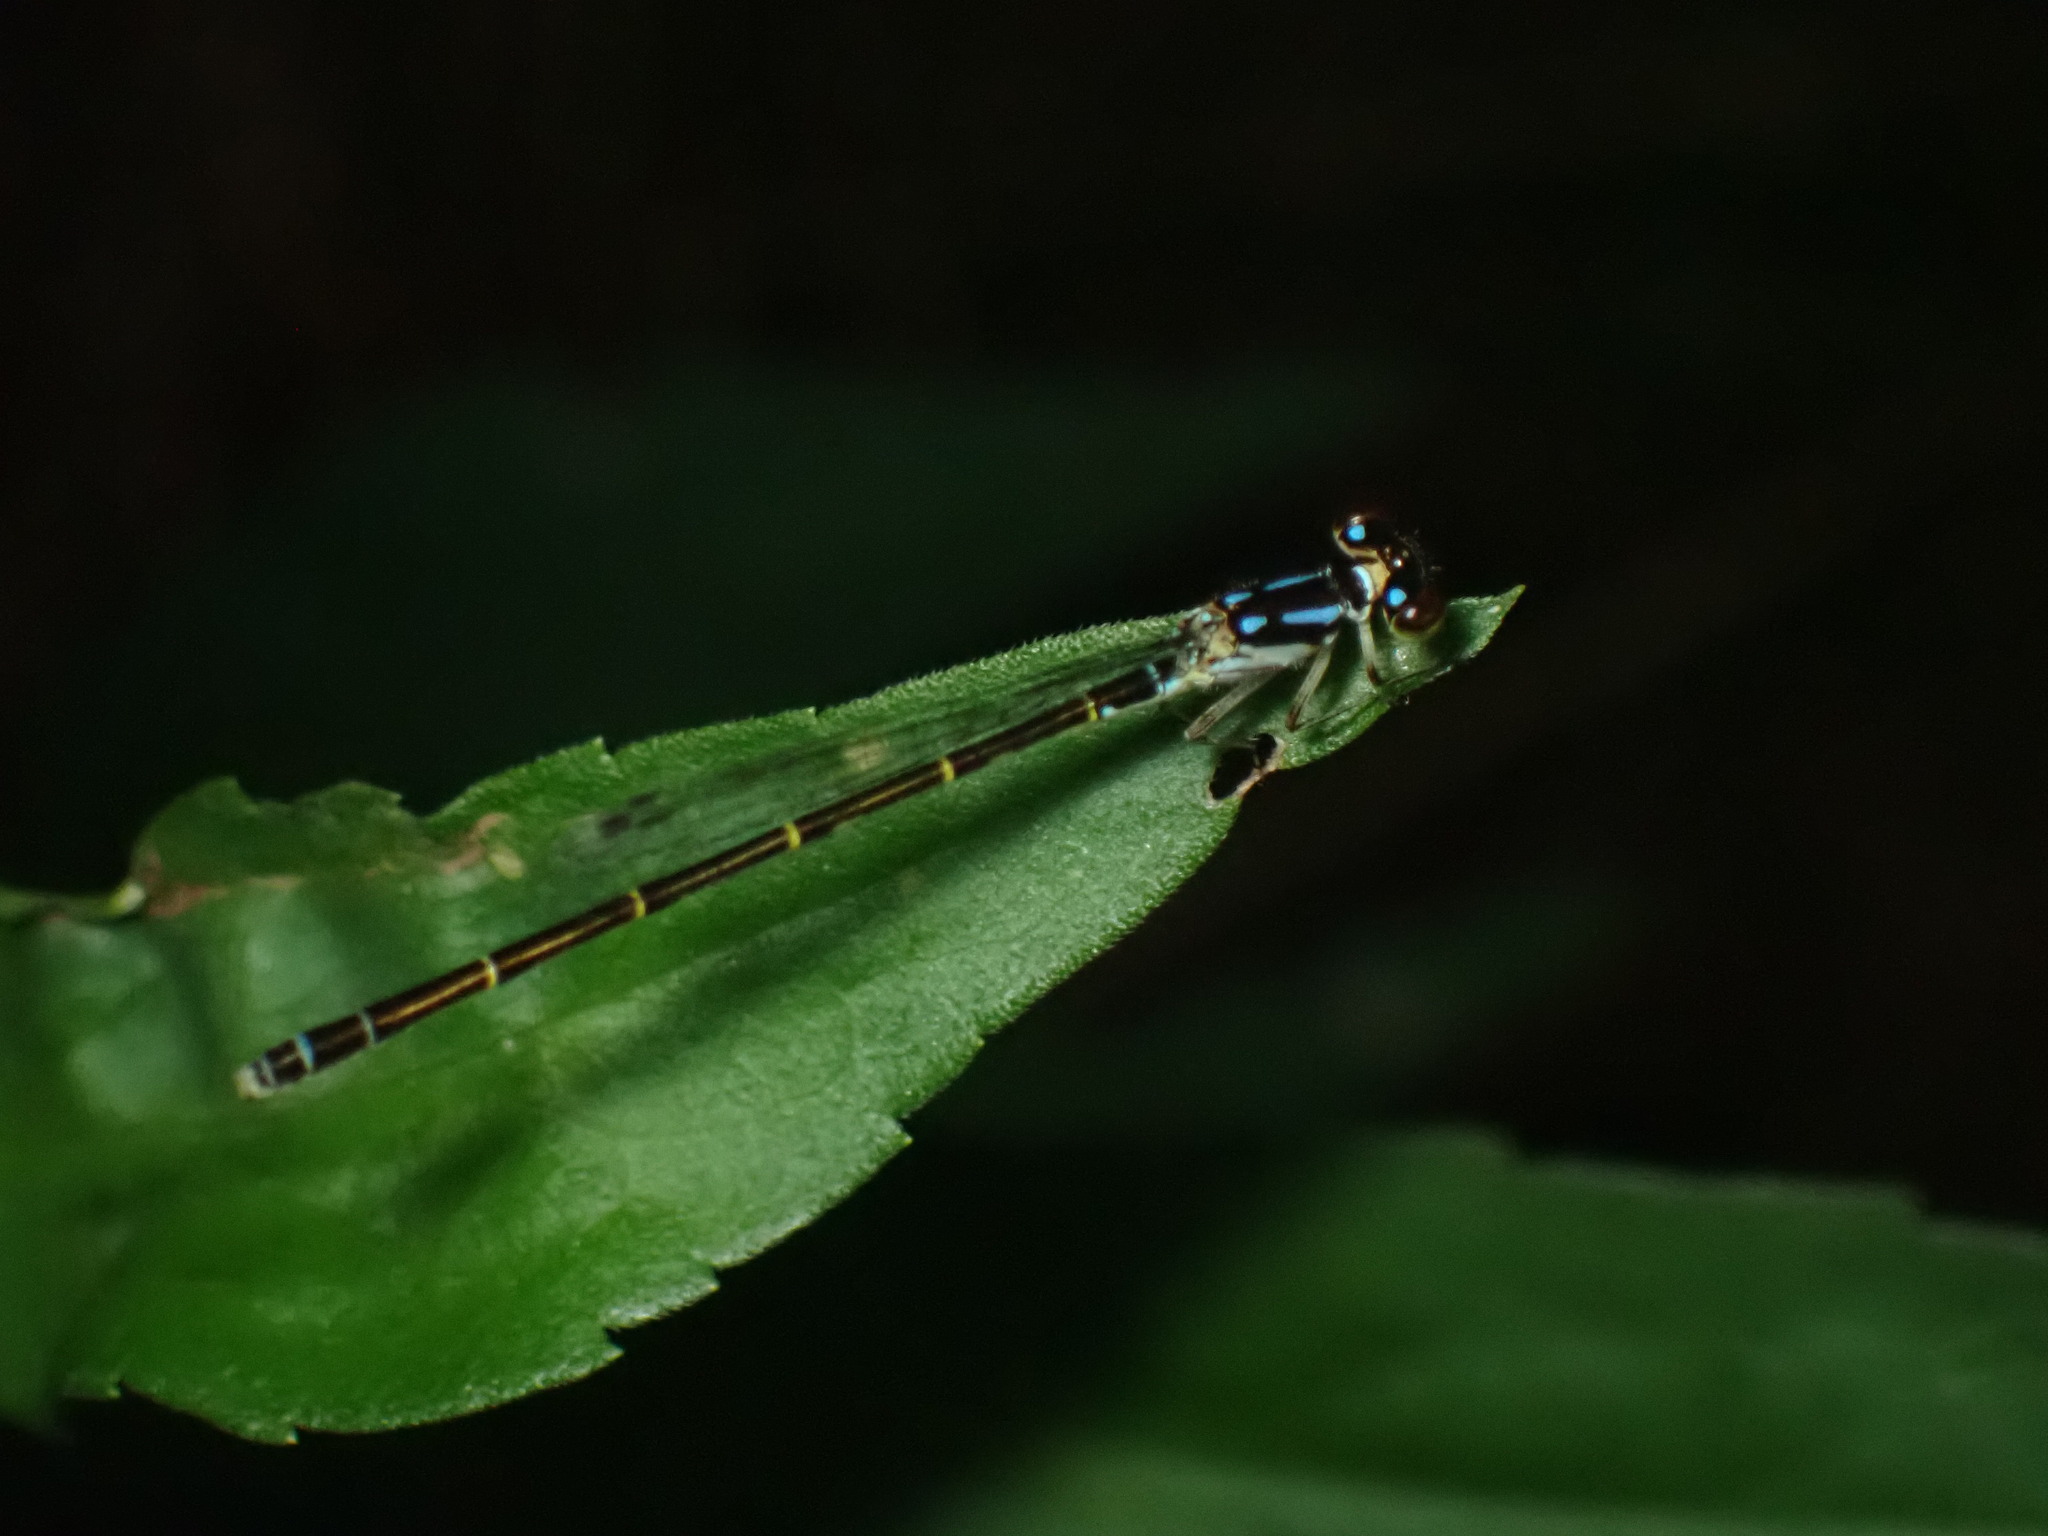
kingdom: Animalia
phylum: Arthropoda
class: Insecta
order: Odonata
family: Coenagrionidae
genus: Ischnura
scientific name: Ischnura posita
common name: Fragile forktail
